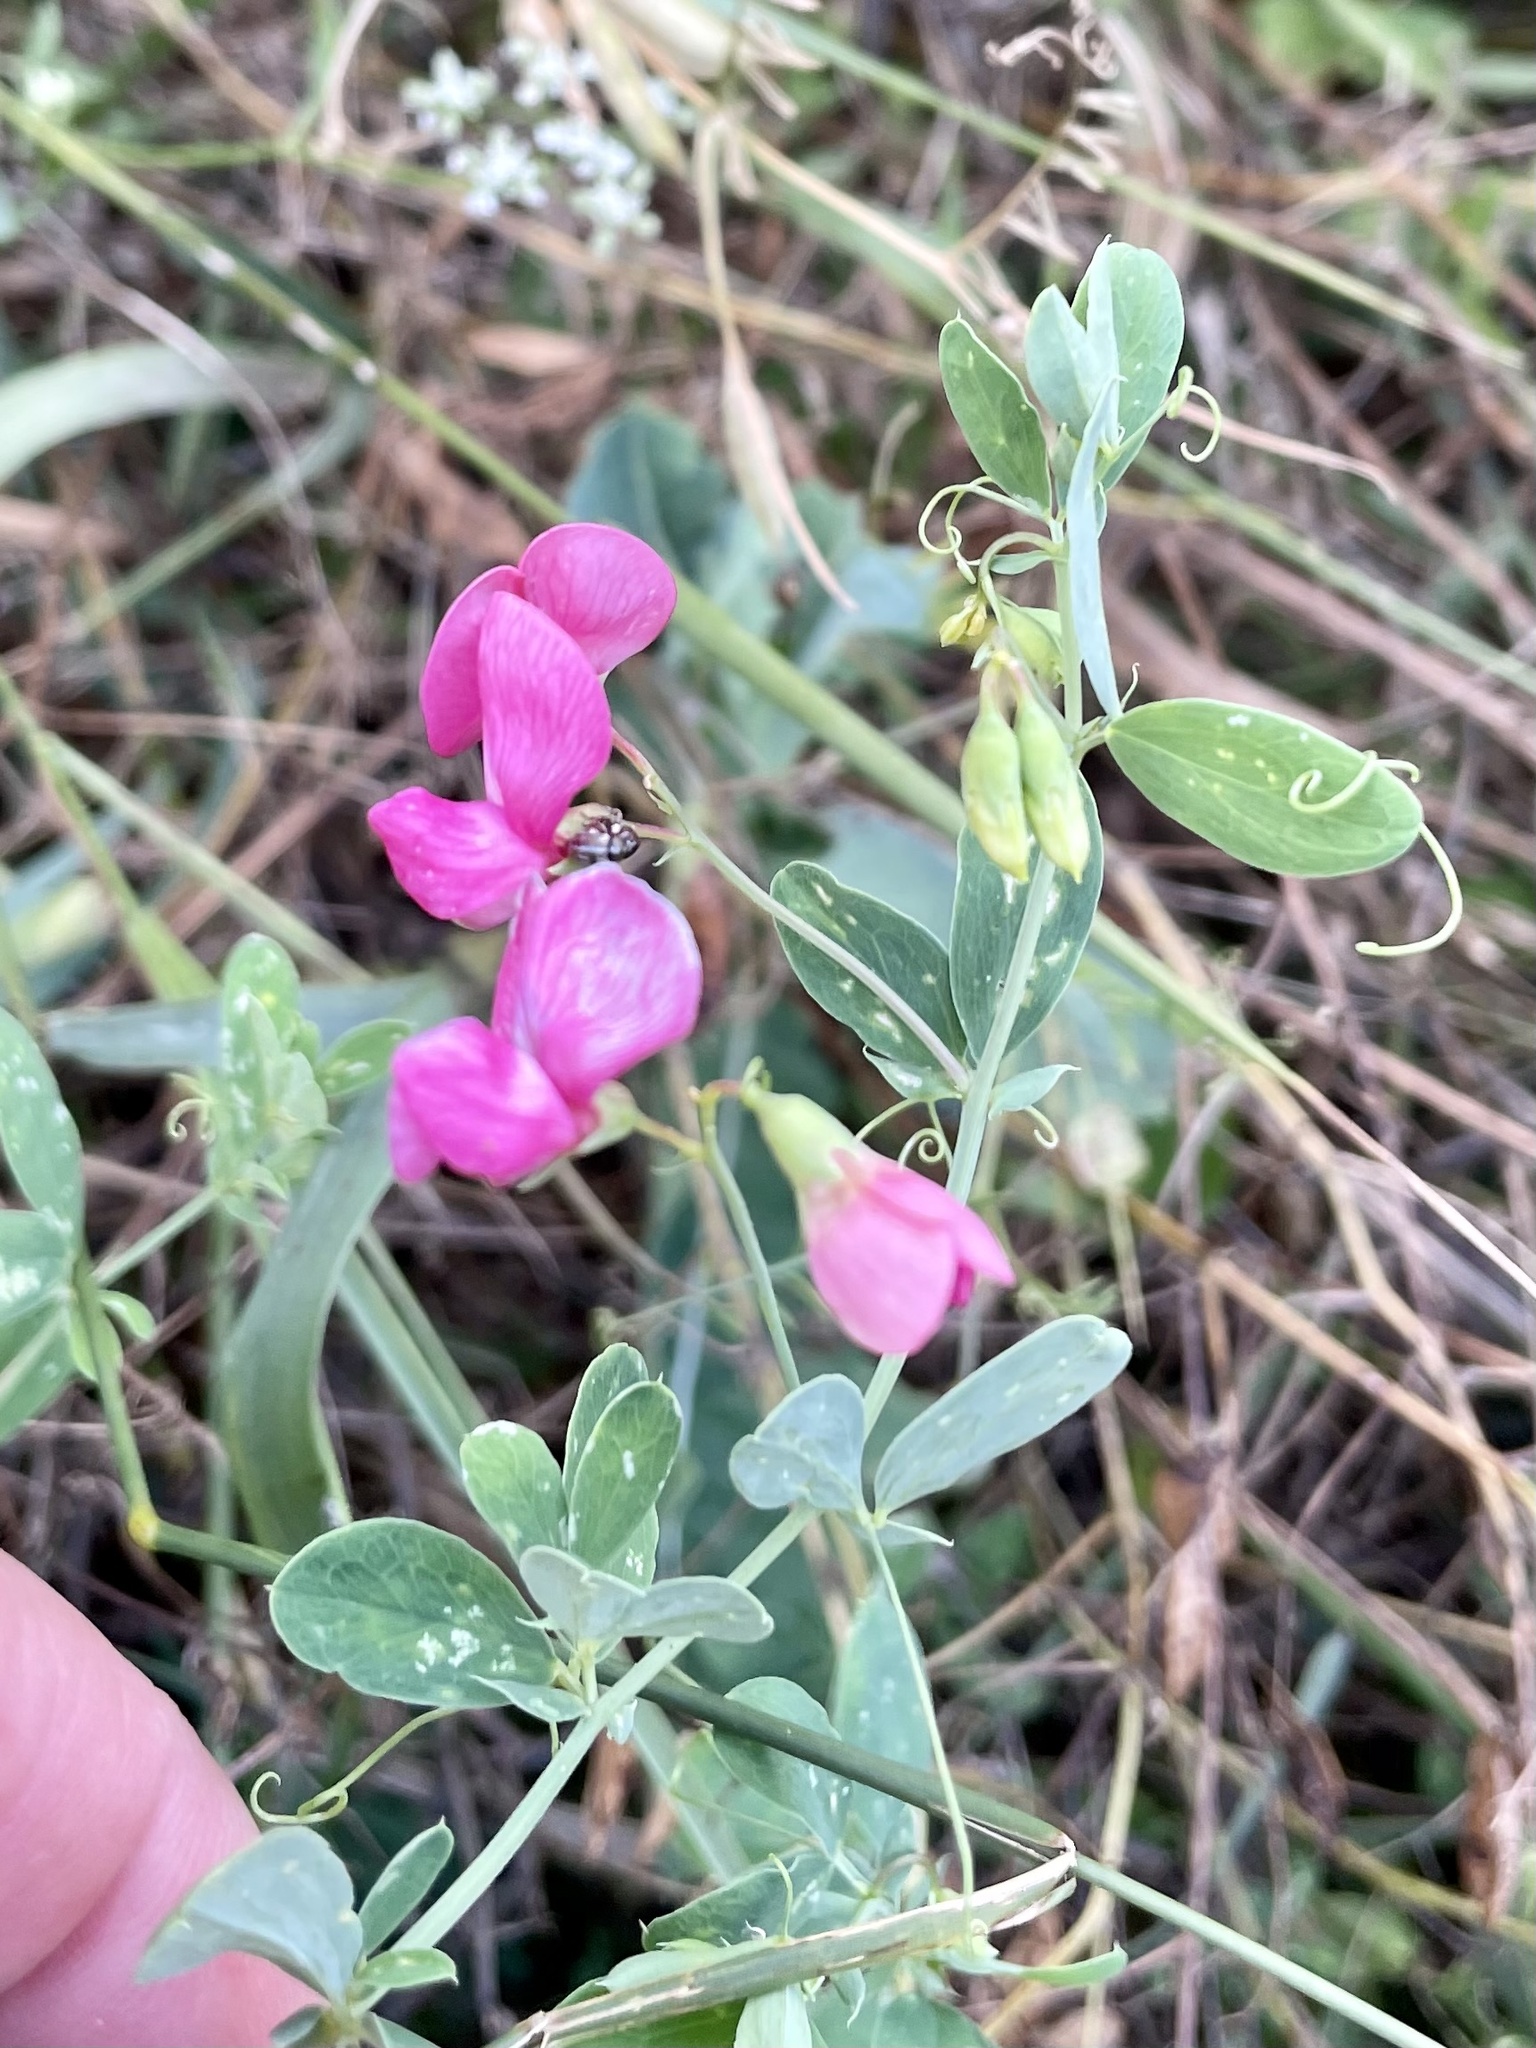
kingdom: Plantae
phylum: Tracheophyta
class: Magnoliopsida
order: Fabales
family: Fabaceae
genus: Lathyrus
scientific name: Lathyrus tuberosus
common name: Tuberous pea
